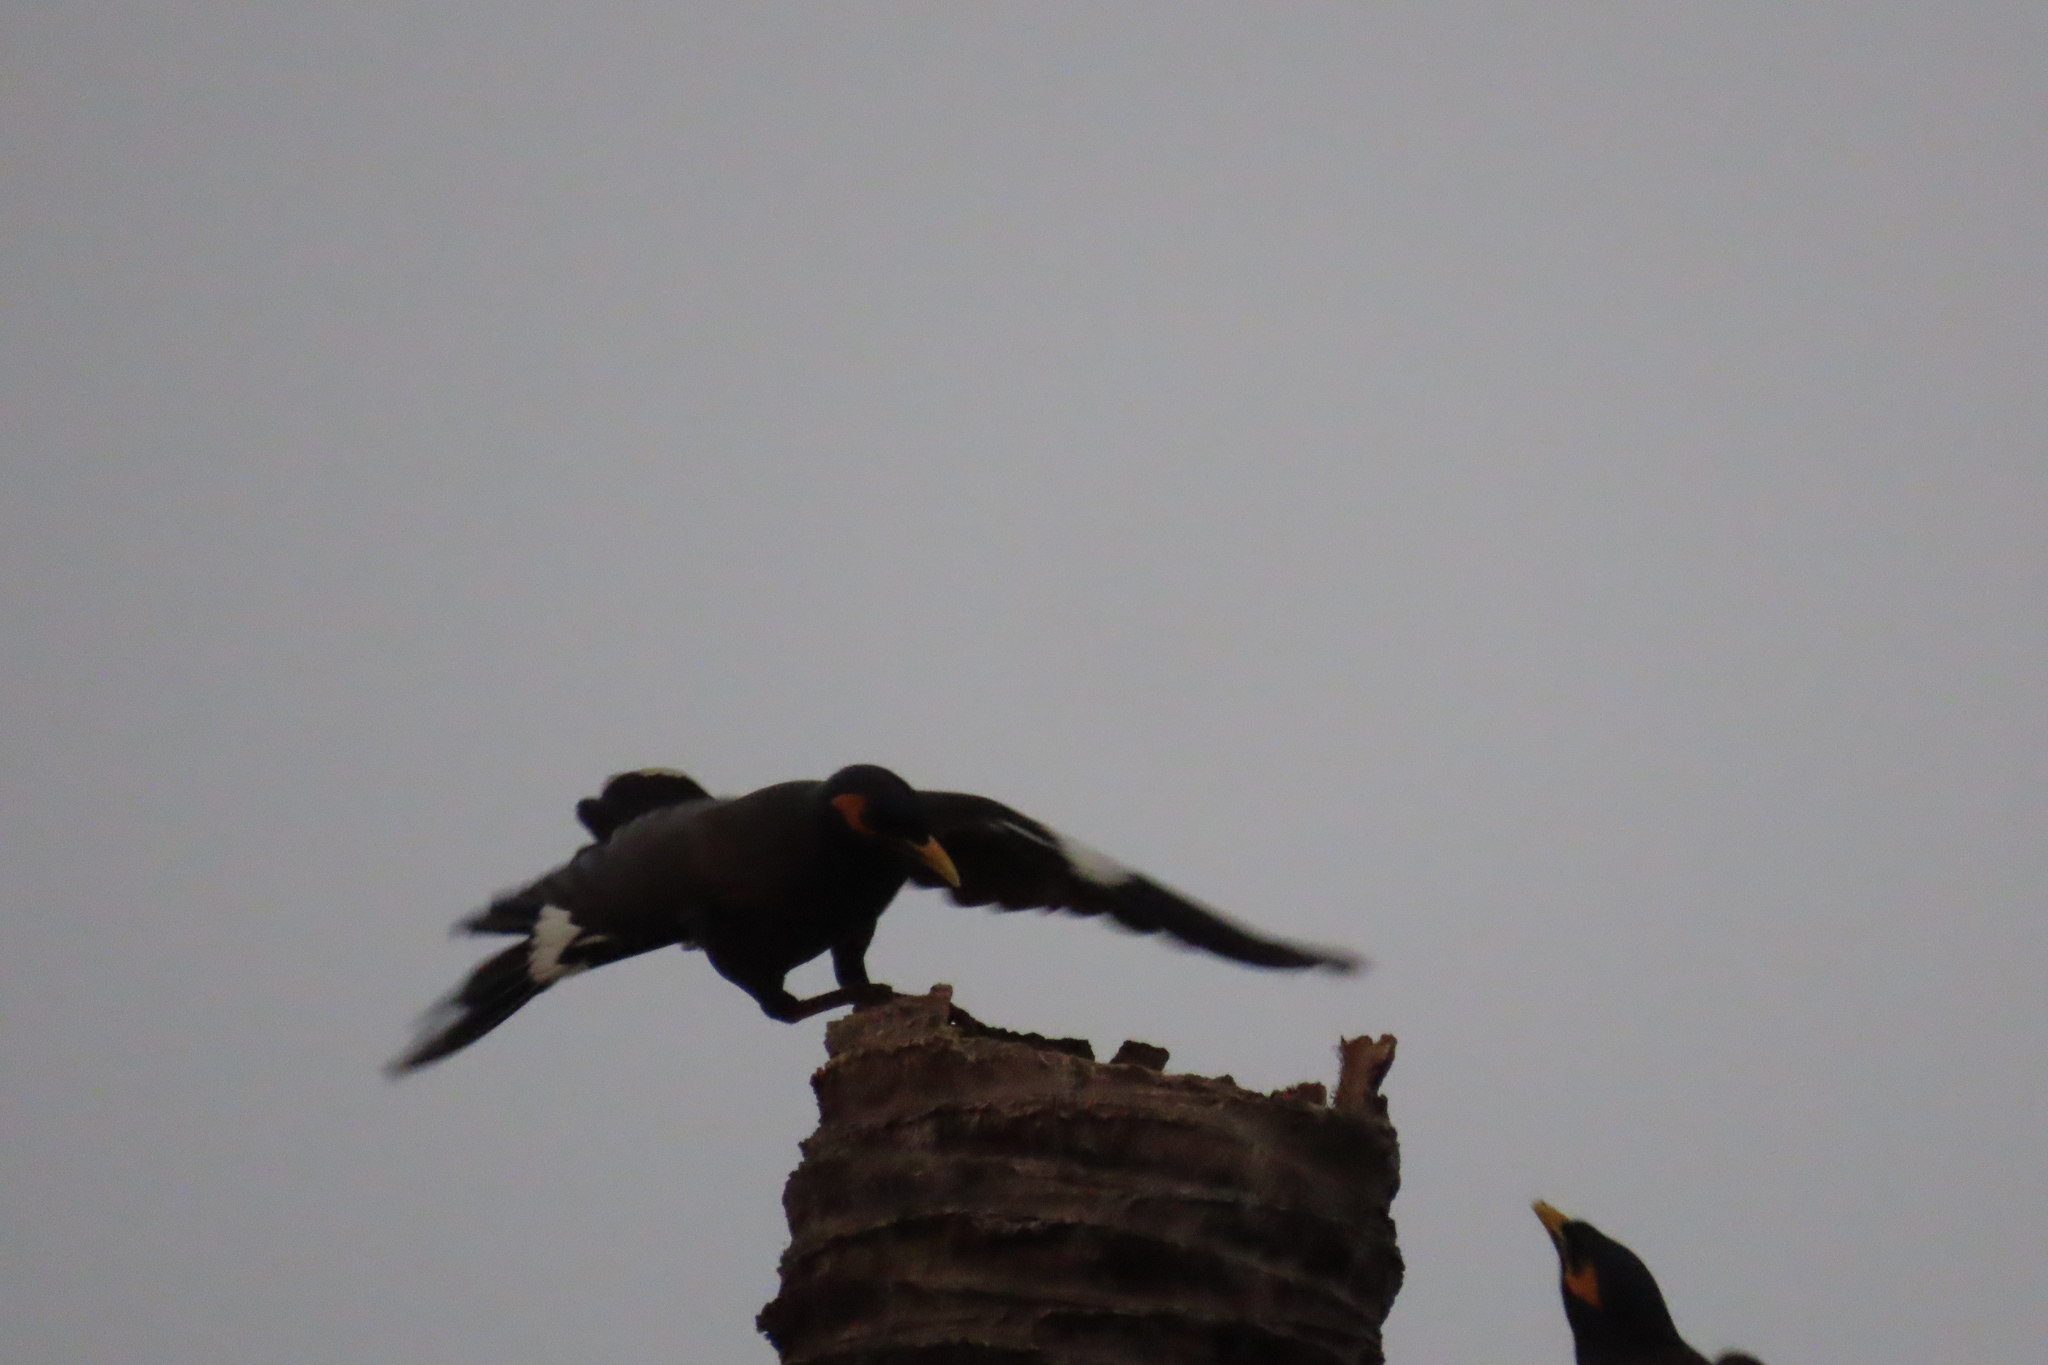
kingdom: Animalia
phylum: Chordata
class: Aves
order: Passeriformes
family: Sturnidae
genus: Acridotheres
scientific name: Acridotheres tristis
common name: Common myna
